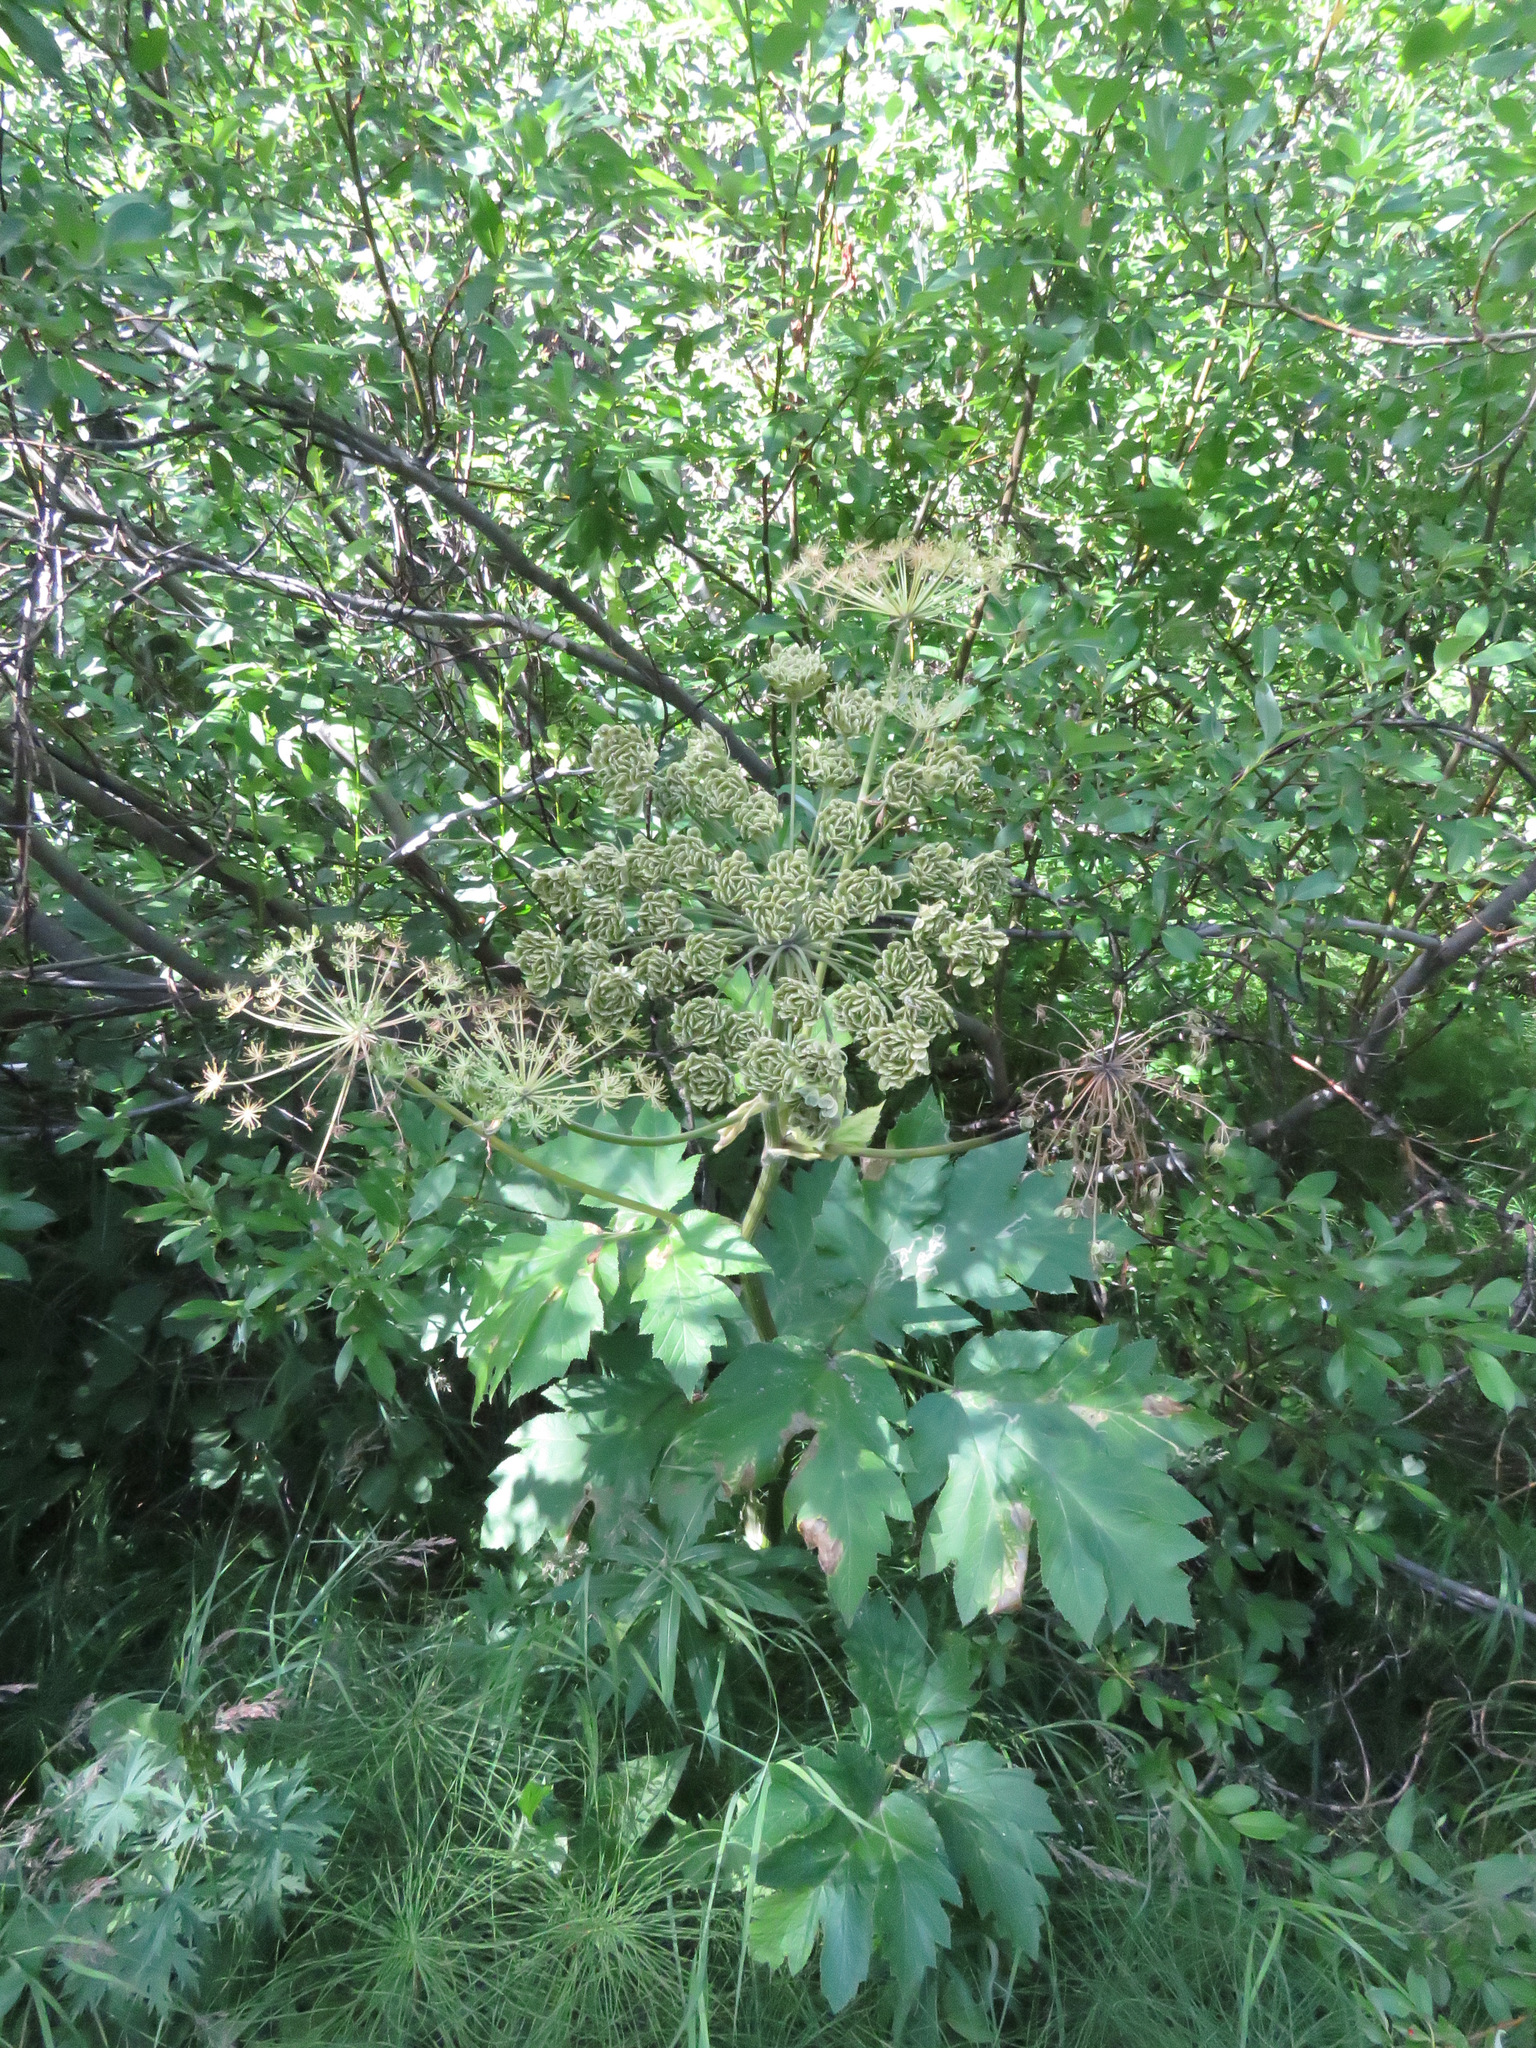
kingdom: Plantae
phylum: Tracheophyta
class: Magnoliopsida
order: Apiales
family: Apiaceae
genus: Heracleum
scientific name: Heracleum maximum
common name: American cow parsnip
